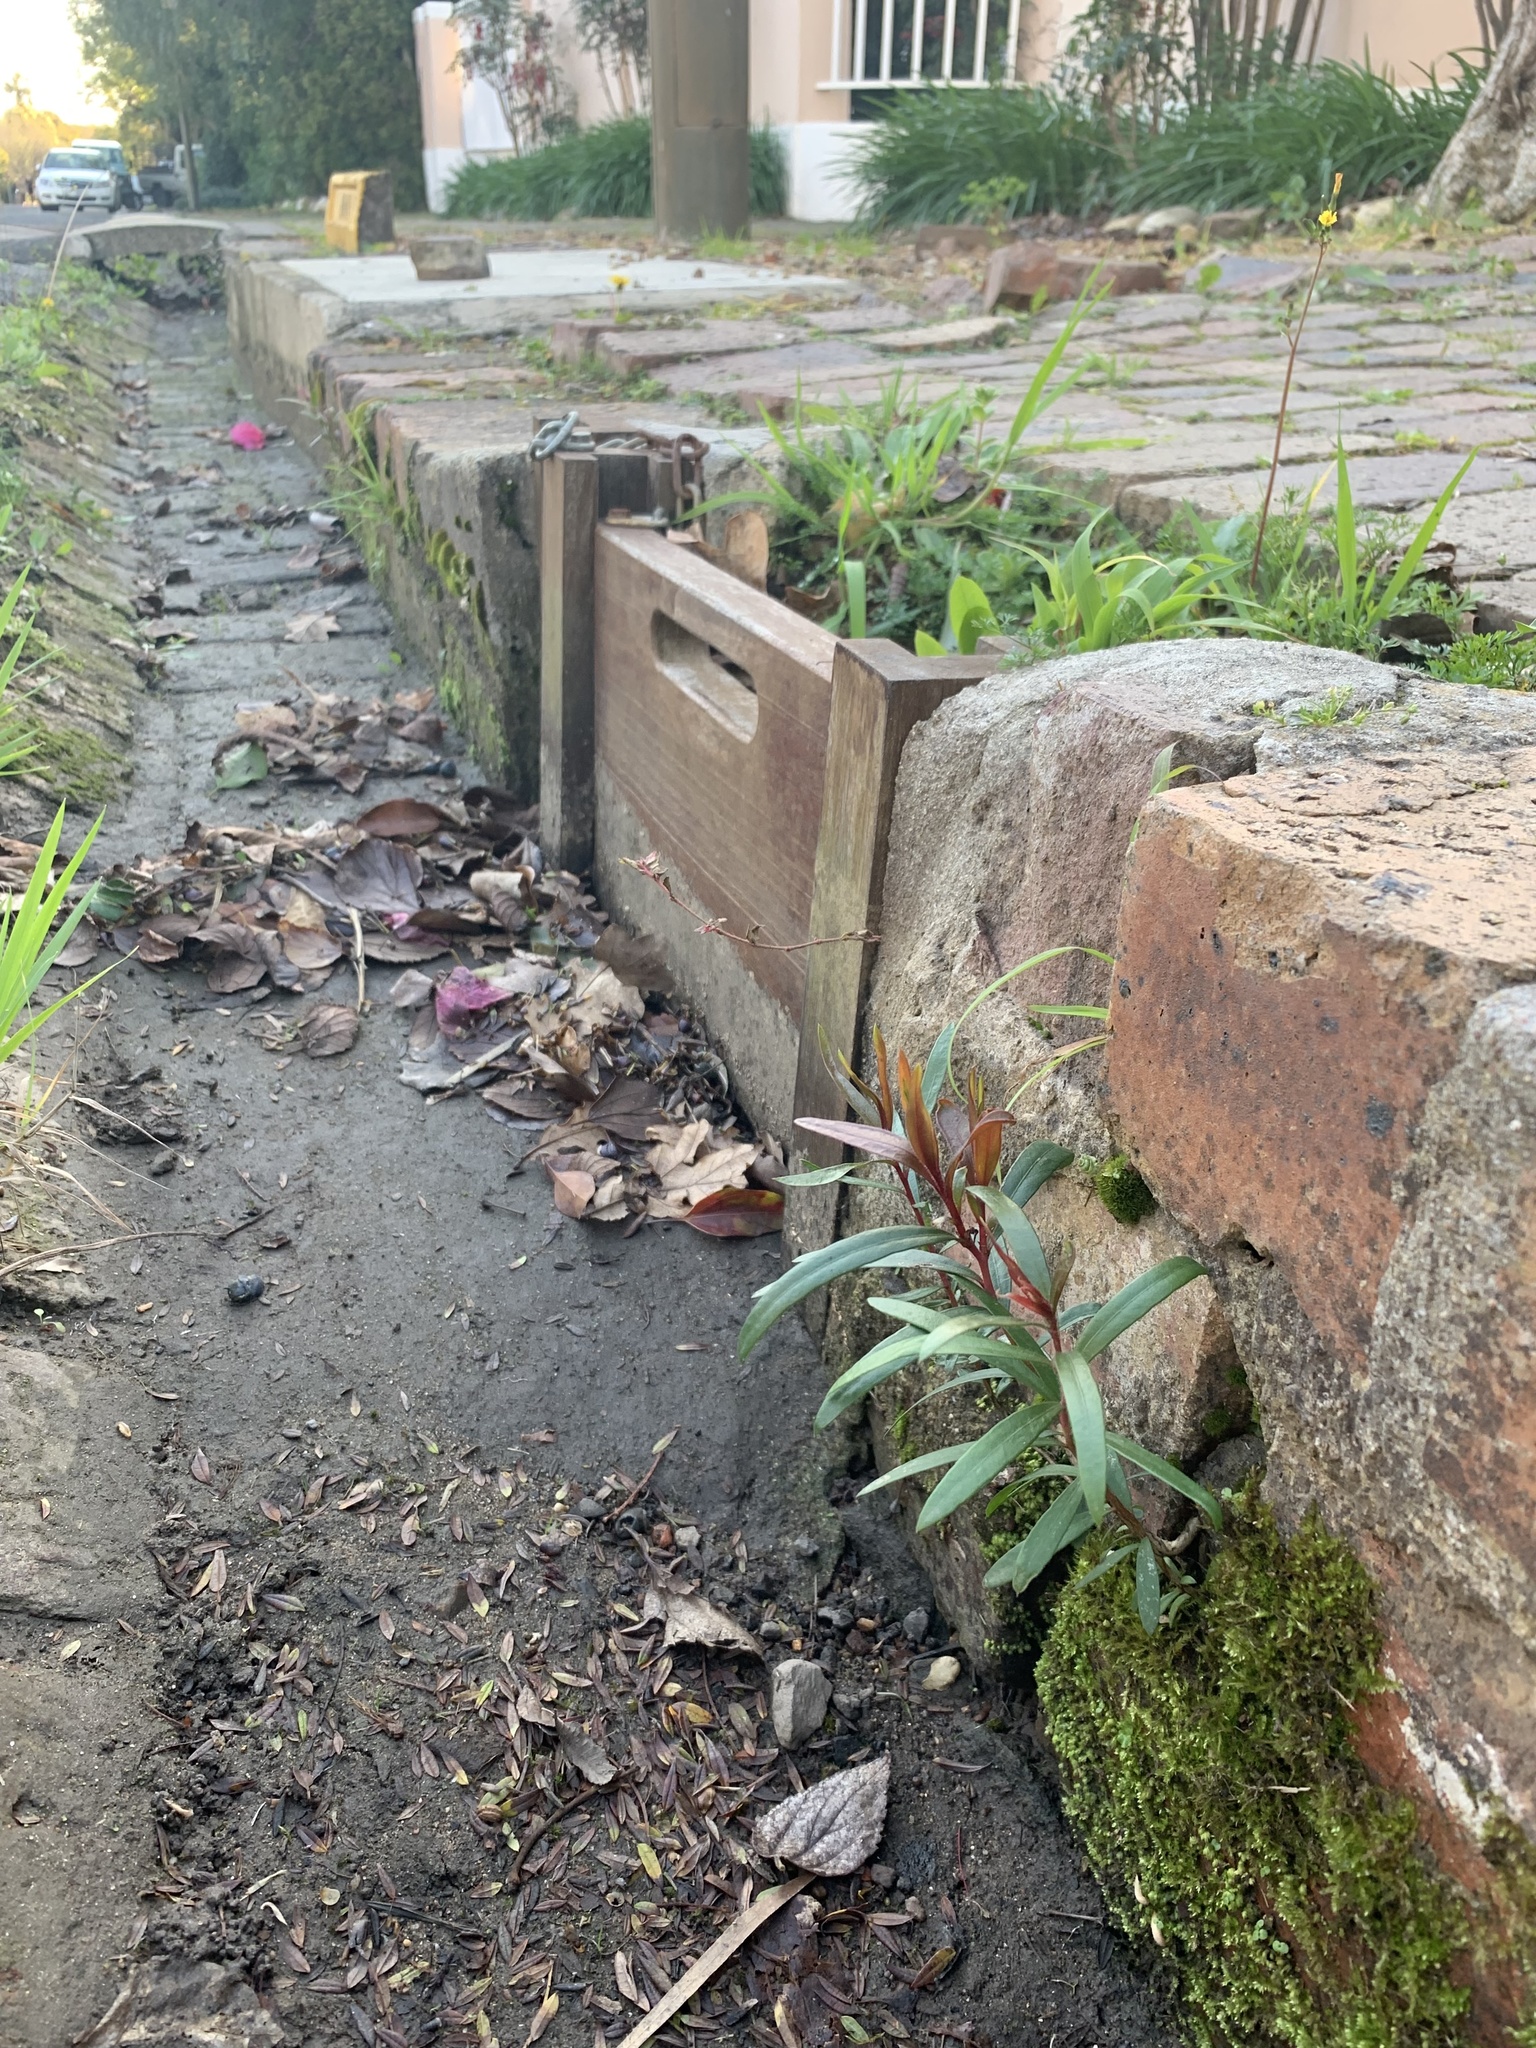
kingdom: Plantae
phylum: Tracheophyta
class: Magnoliopsida
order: Myrtales
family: Myrtaceae
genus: Callistemon
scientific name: Callistemon viminalis
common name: Drooping bottlebrush
